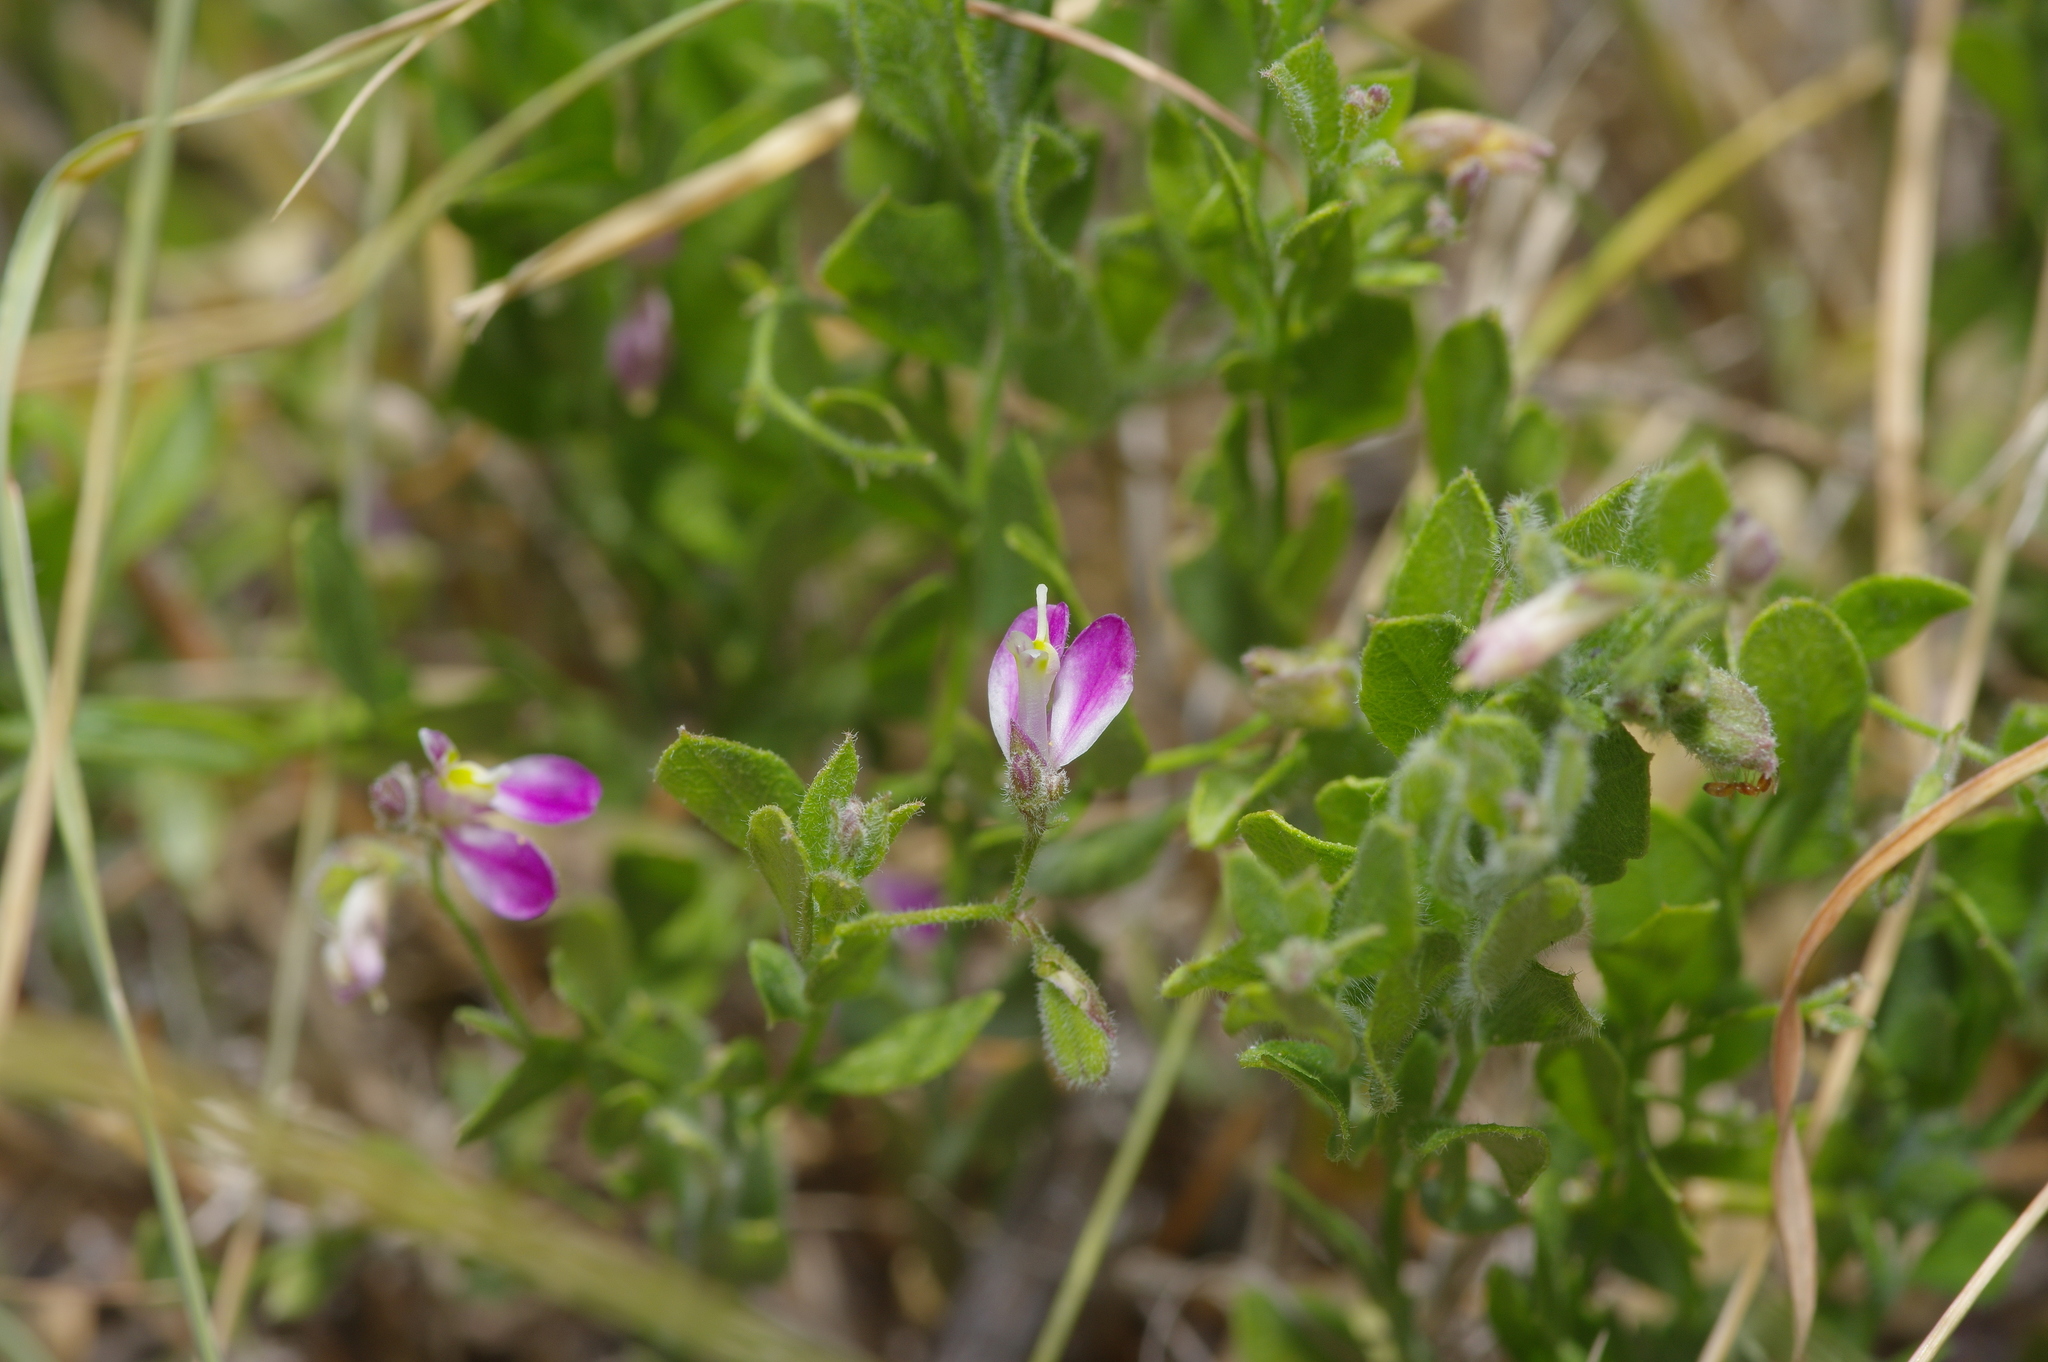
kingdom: Plantae
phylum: Tracheophyta
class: Magnoliopsida
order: Fabales
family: Polygalaceae
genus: Rhinotropis
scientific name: Rhinotropis lindheimeri
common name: Shrubby milkwort
